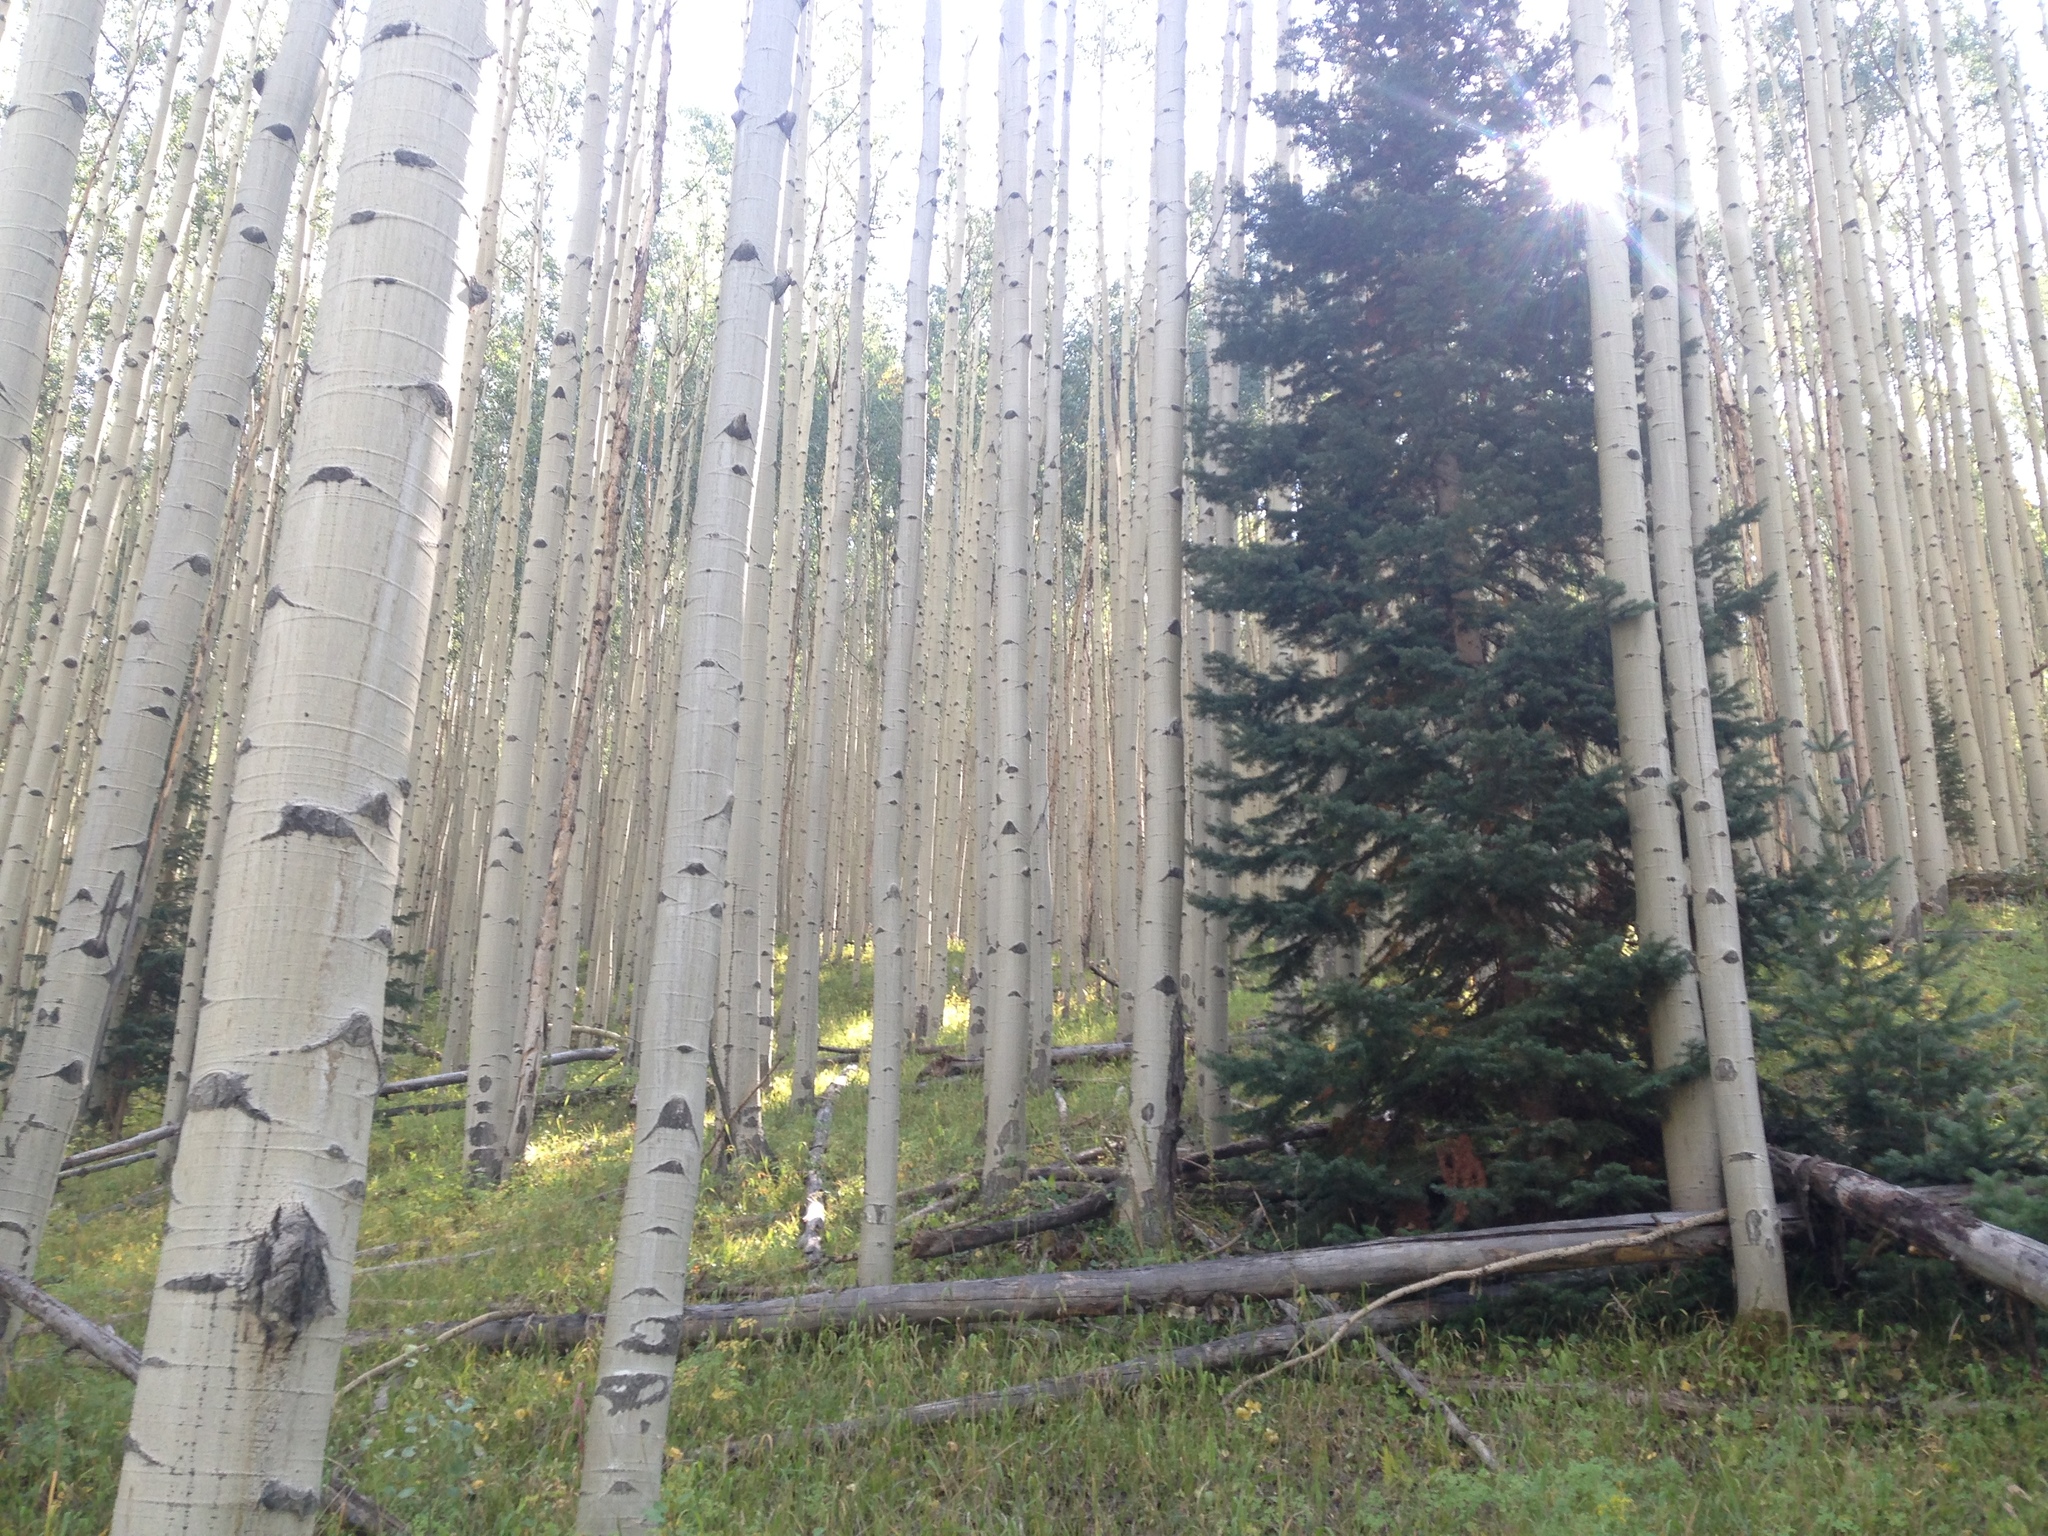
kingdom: Plantae
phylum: Tracheophyta
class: Magnoliopsida
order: Malpighiales
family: Salicaceae
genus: Populus
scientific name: Populus tremuloides
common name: Quaking aspen
